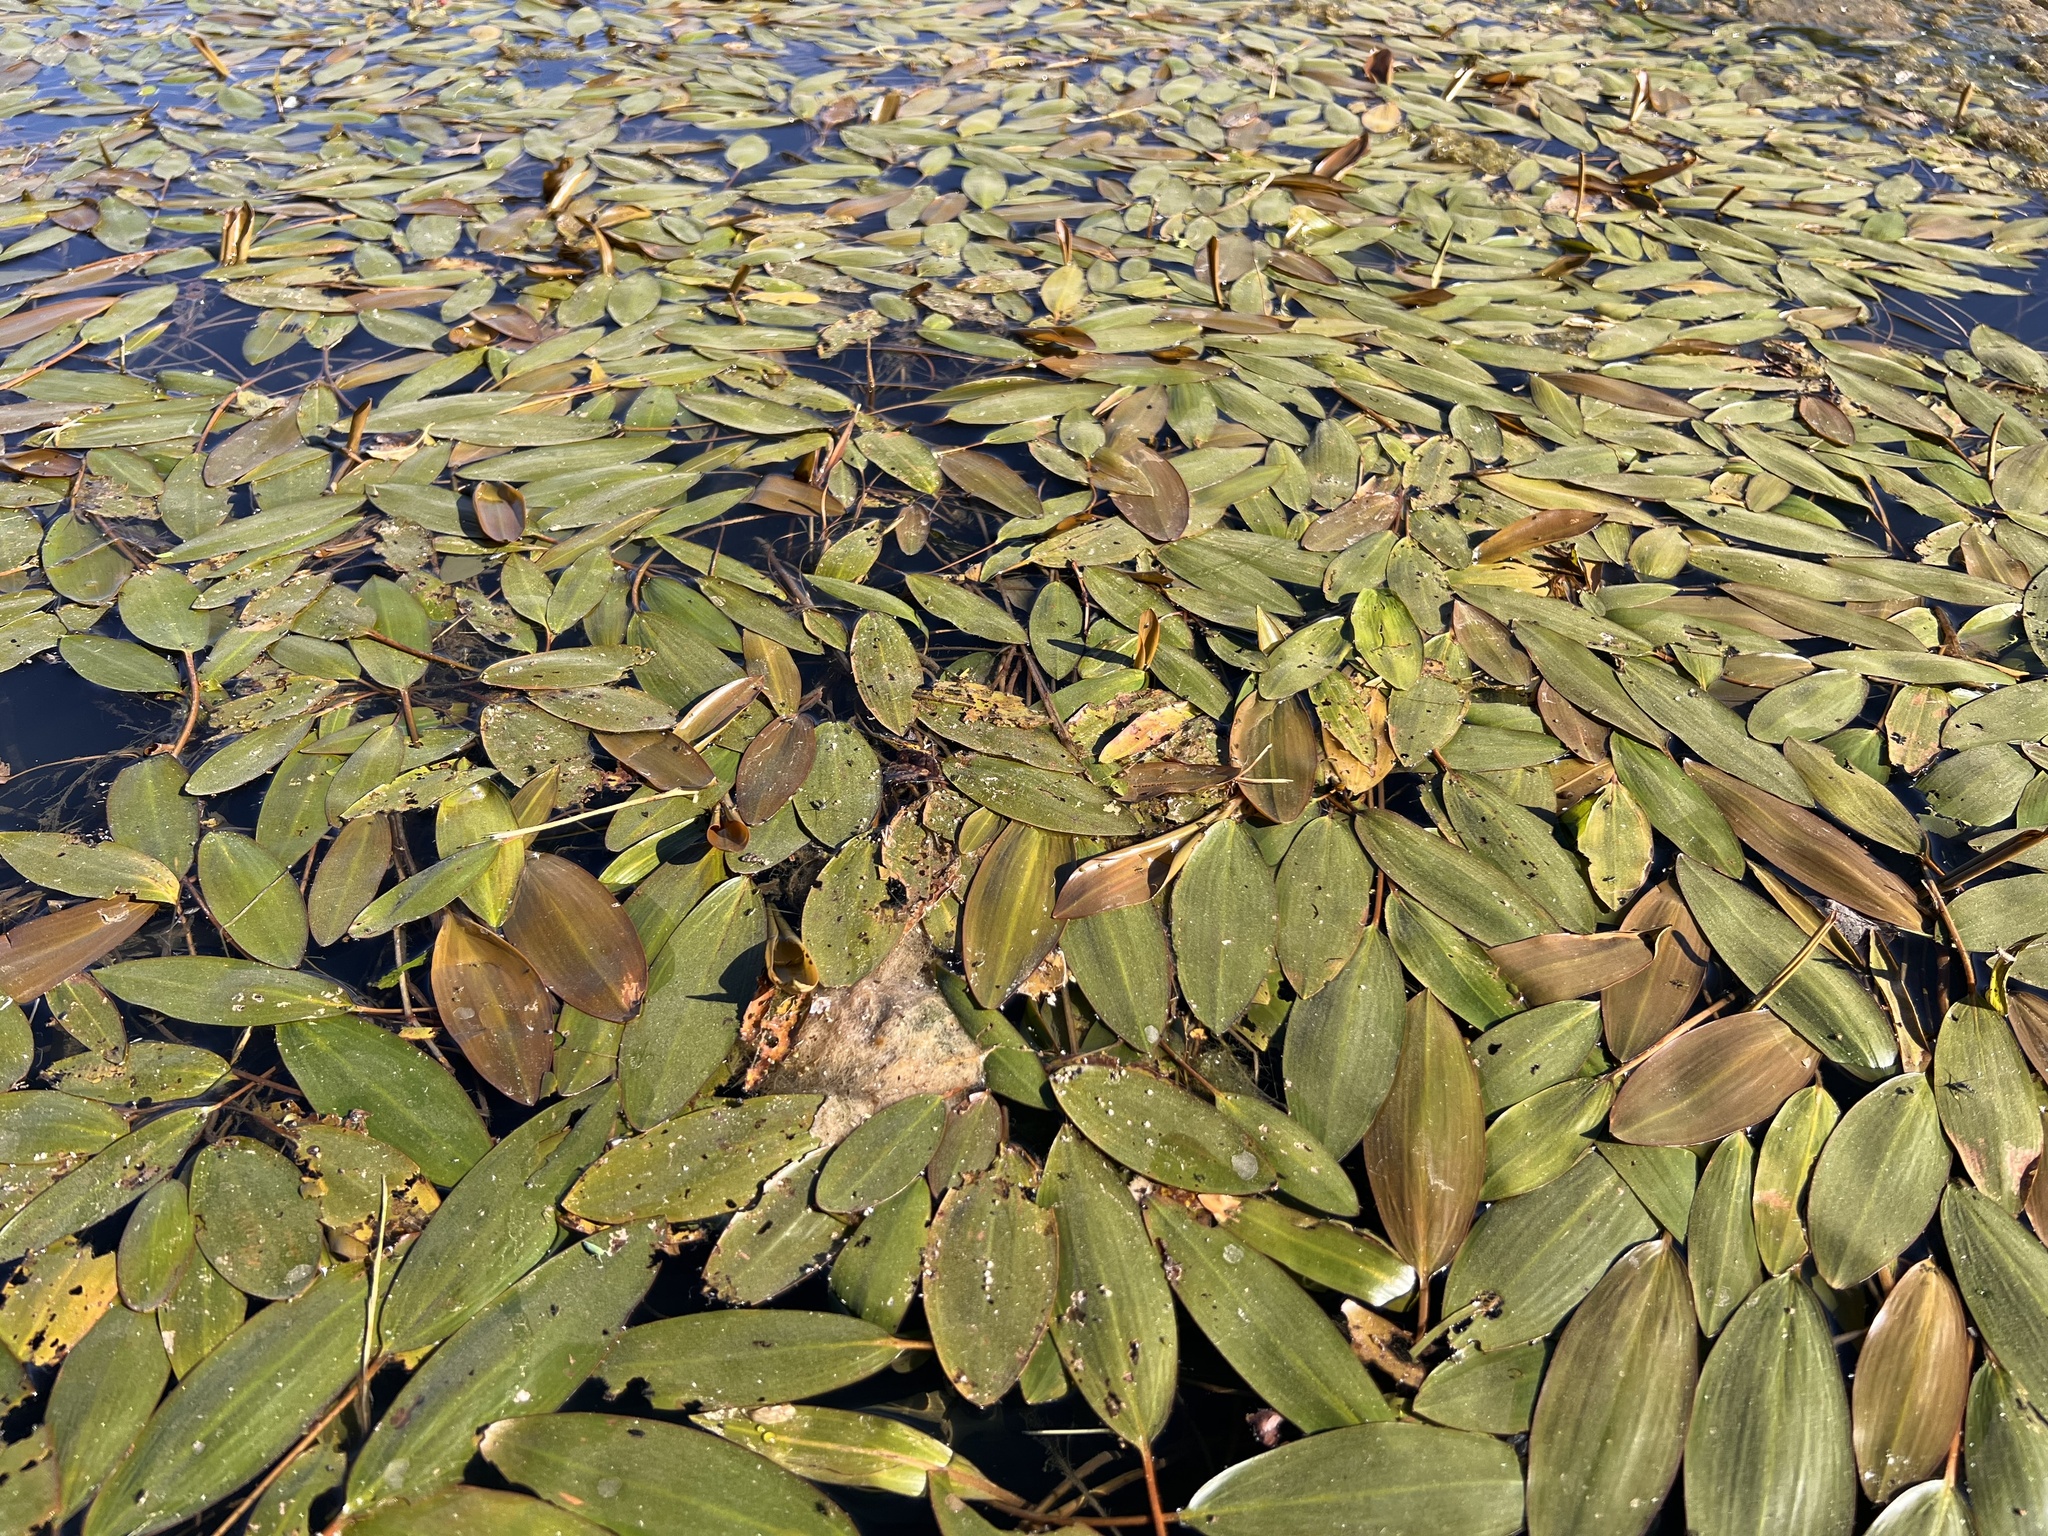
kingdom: Plantae
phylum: Tracheophyta
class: Liliopsida
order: Alismatales
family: Potamogetonaceae
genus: Potamogeton
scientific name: Potamogeton nodosus
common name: Loddon pondweed
